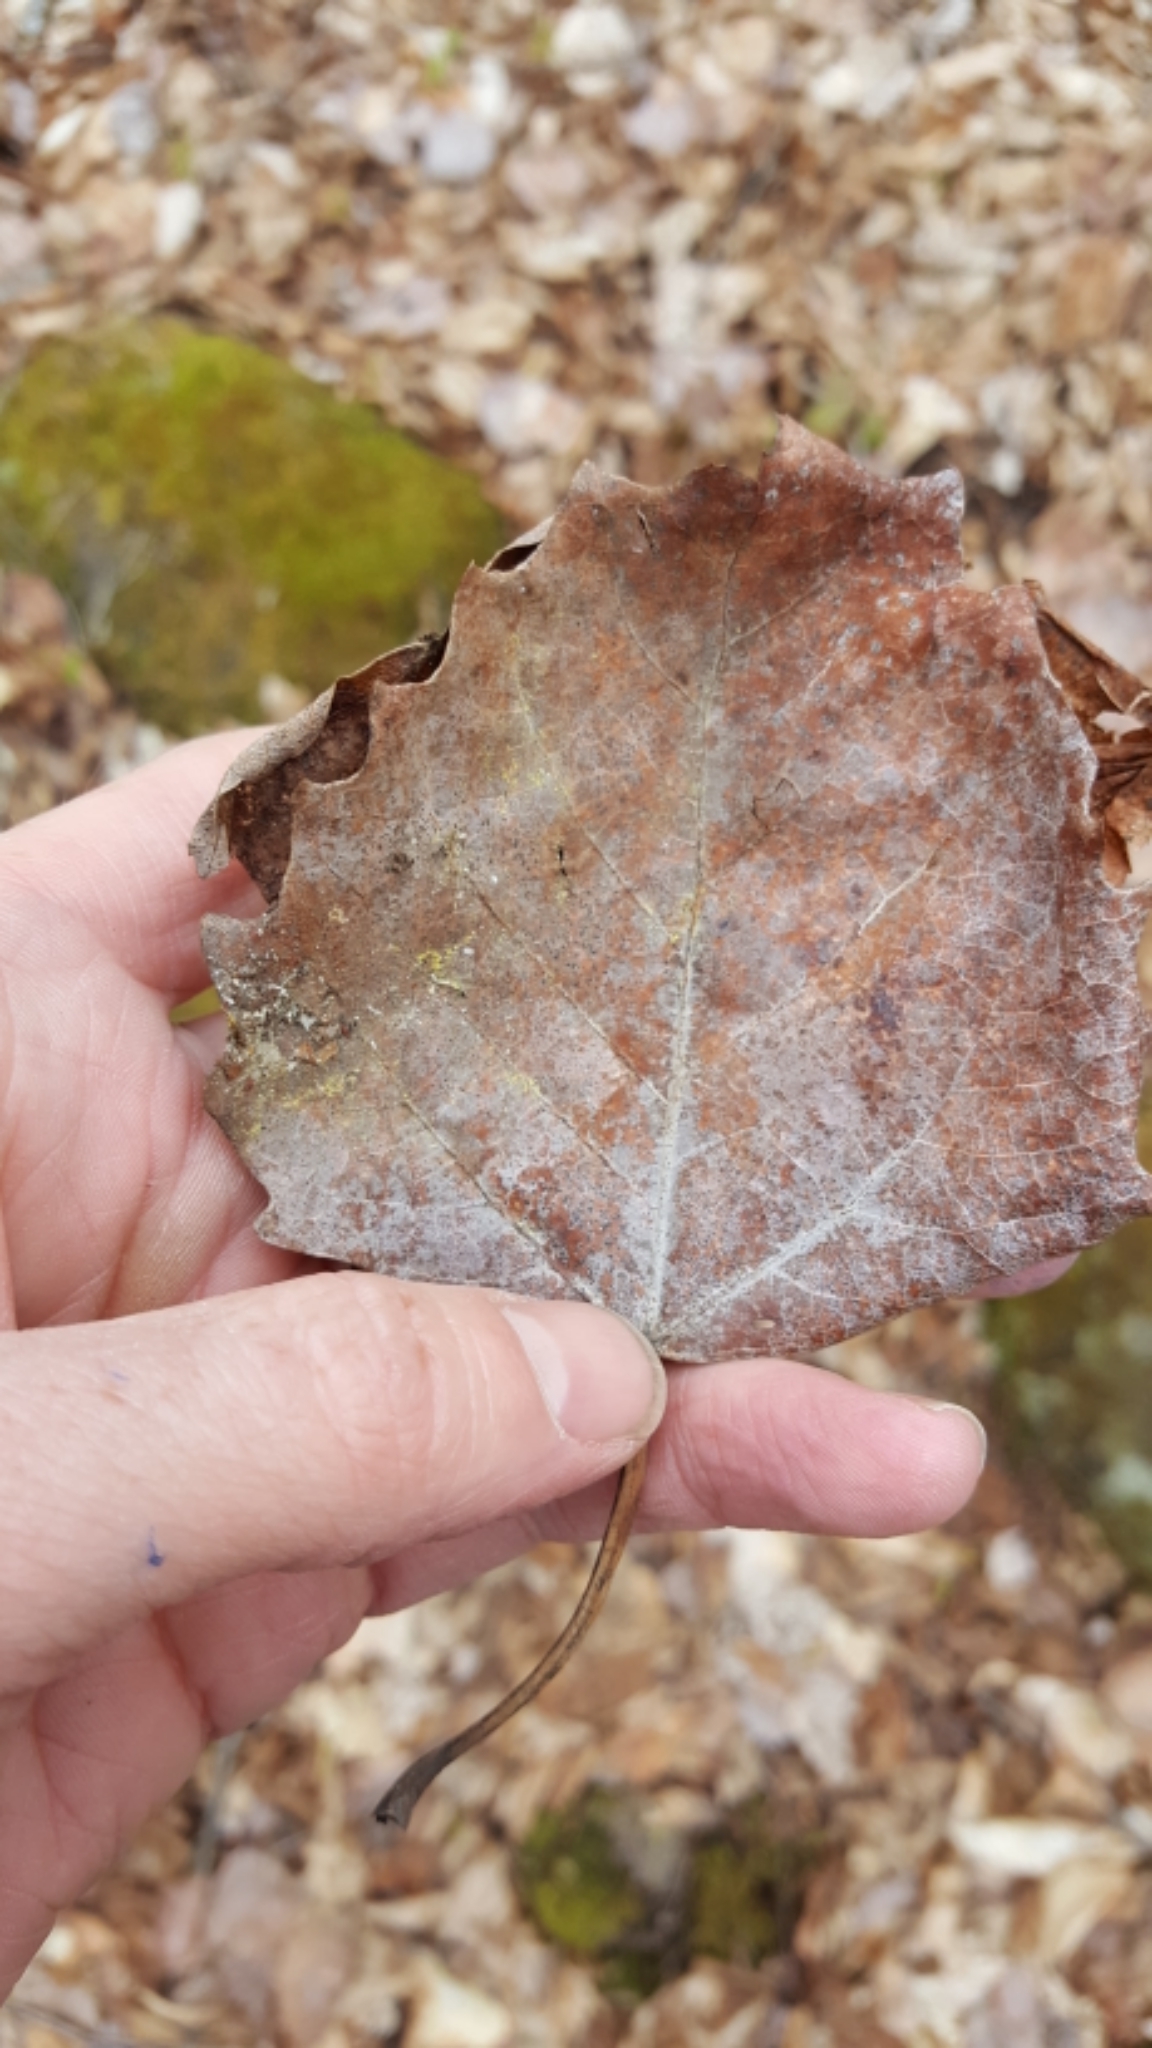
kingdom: Plantae
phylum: Tracheophyta
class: Magnoliopsida
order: Malpighiales
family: Salicaceae
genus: Populus
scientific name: Populus grandidentata
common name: Bigtooth aspen
